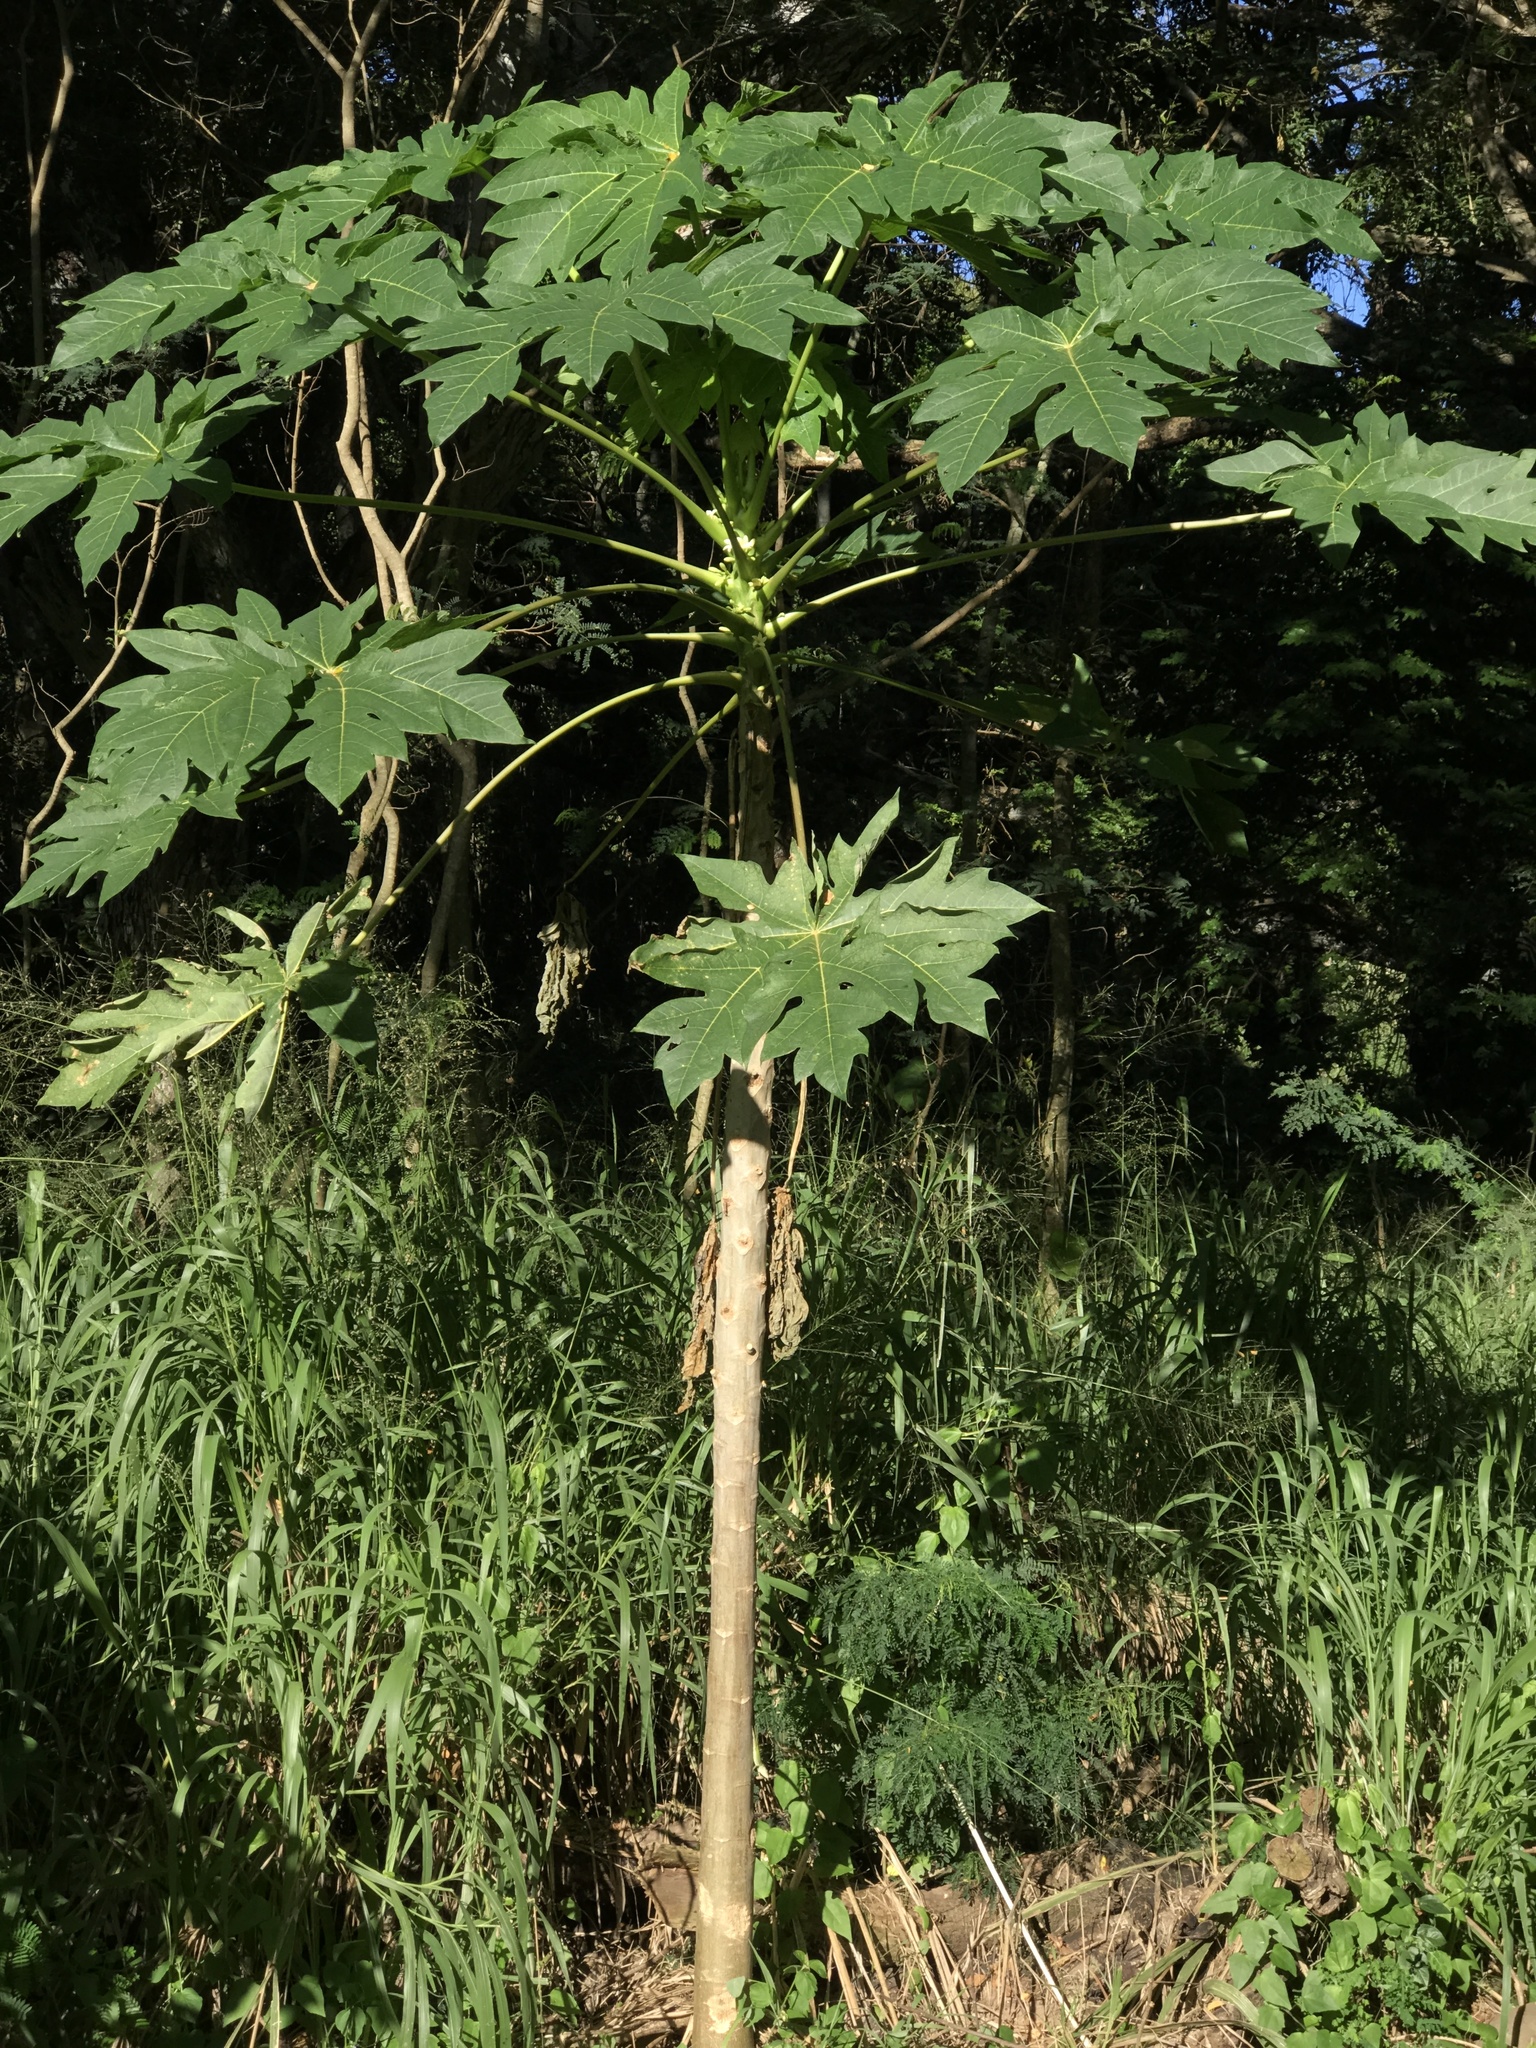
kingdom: Plantae
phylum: Tracheophyta
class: Magnoliopsida
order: Brassicales
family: Caricaceae
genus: Carica
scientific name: Carica papaya
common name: Papaya
